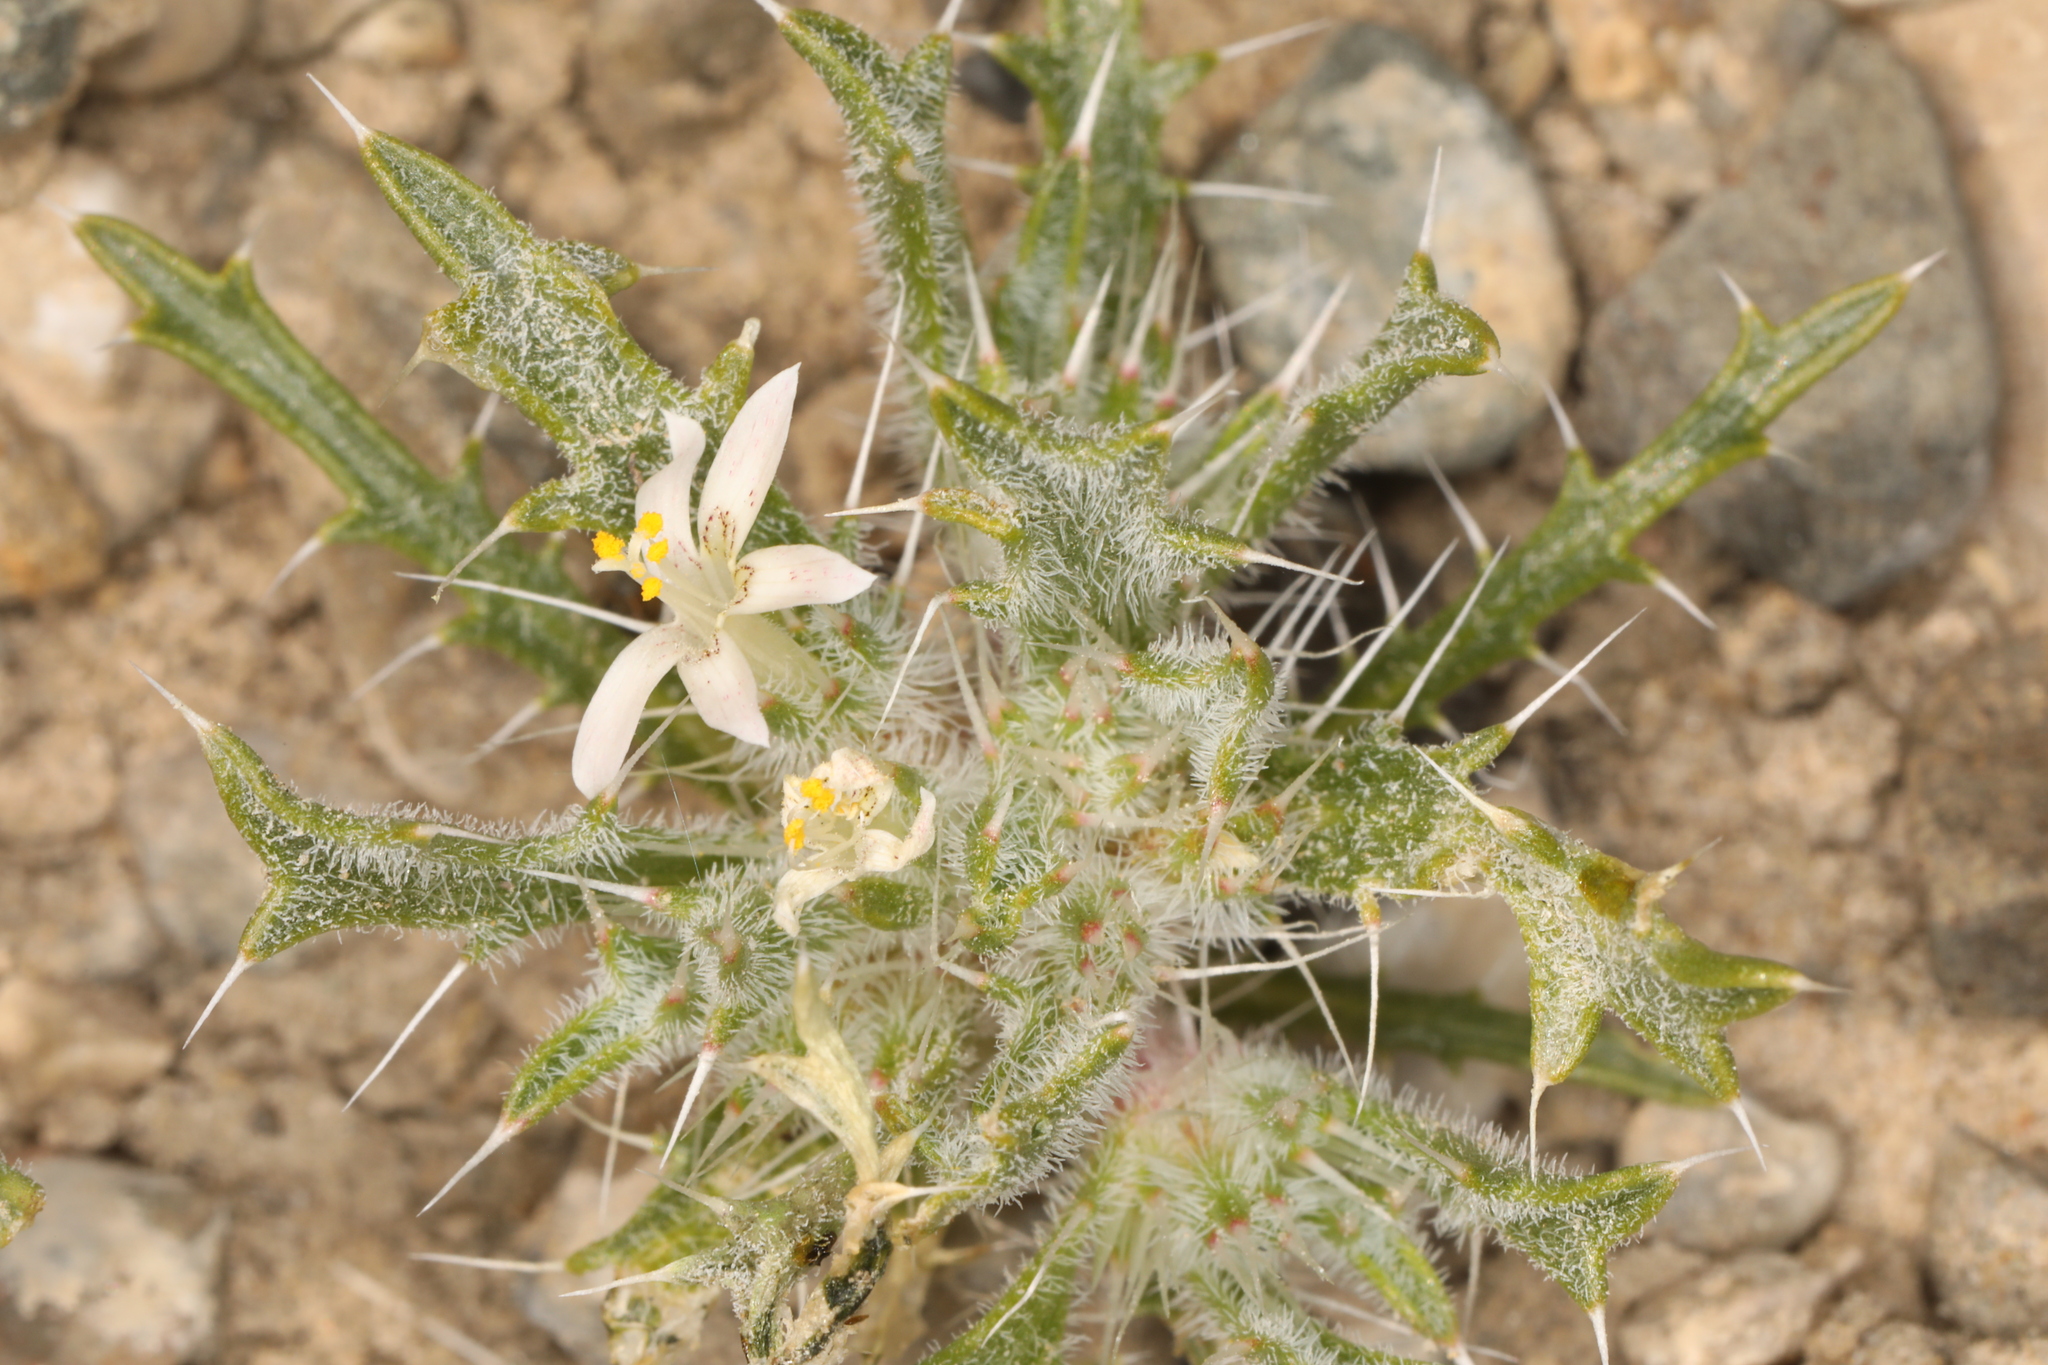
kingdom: Plantae
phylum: Tracheophyta
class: Magnoliopsida
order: Ericales
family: Polemoniaceae
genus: Loeseliastrum
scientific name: Loeseliastrum schottii
